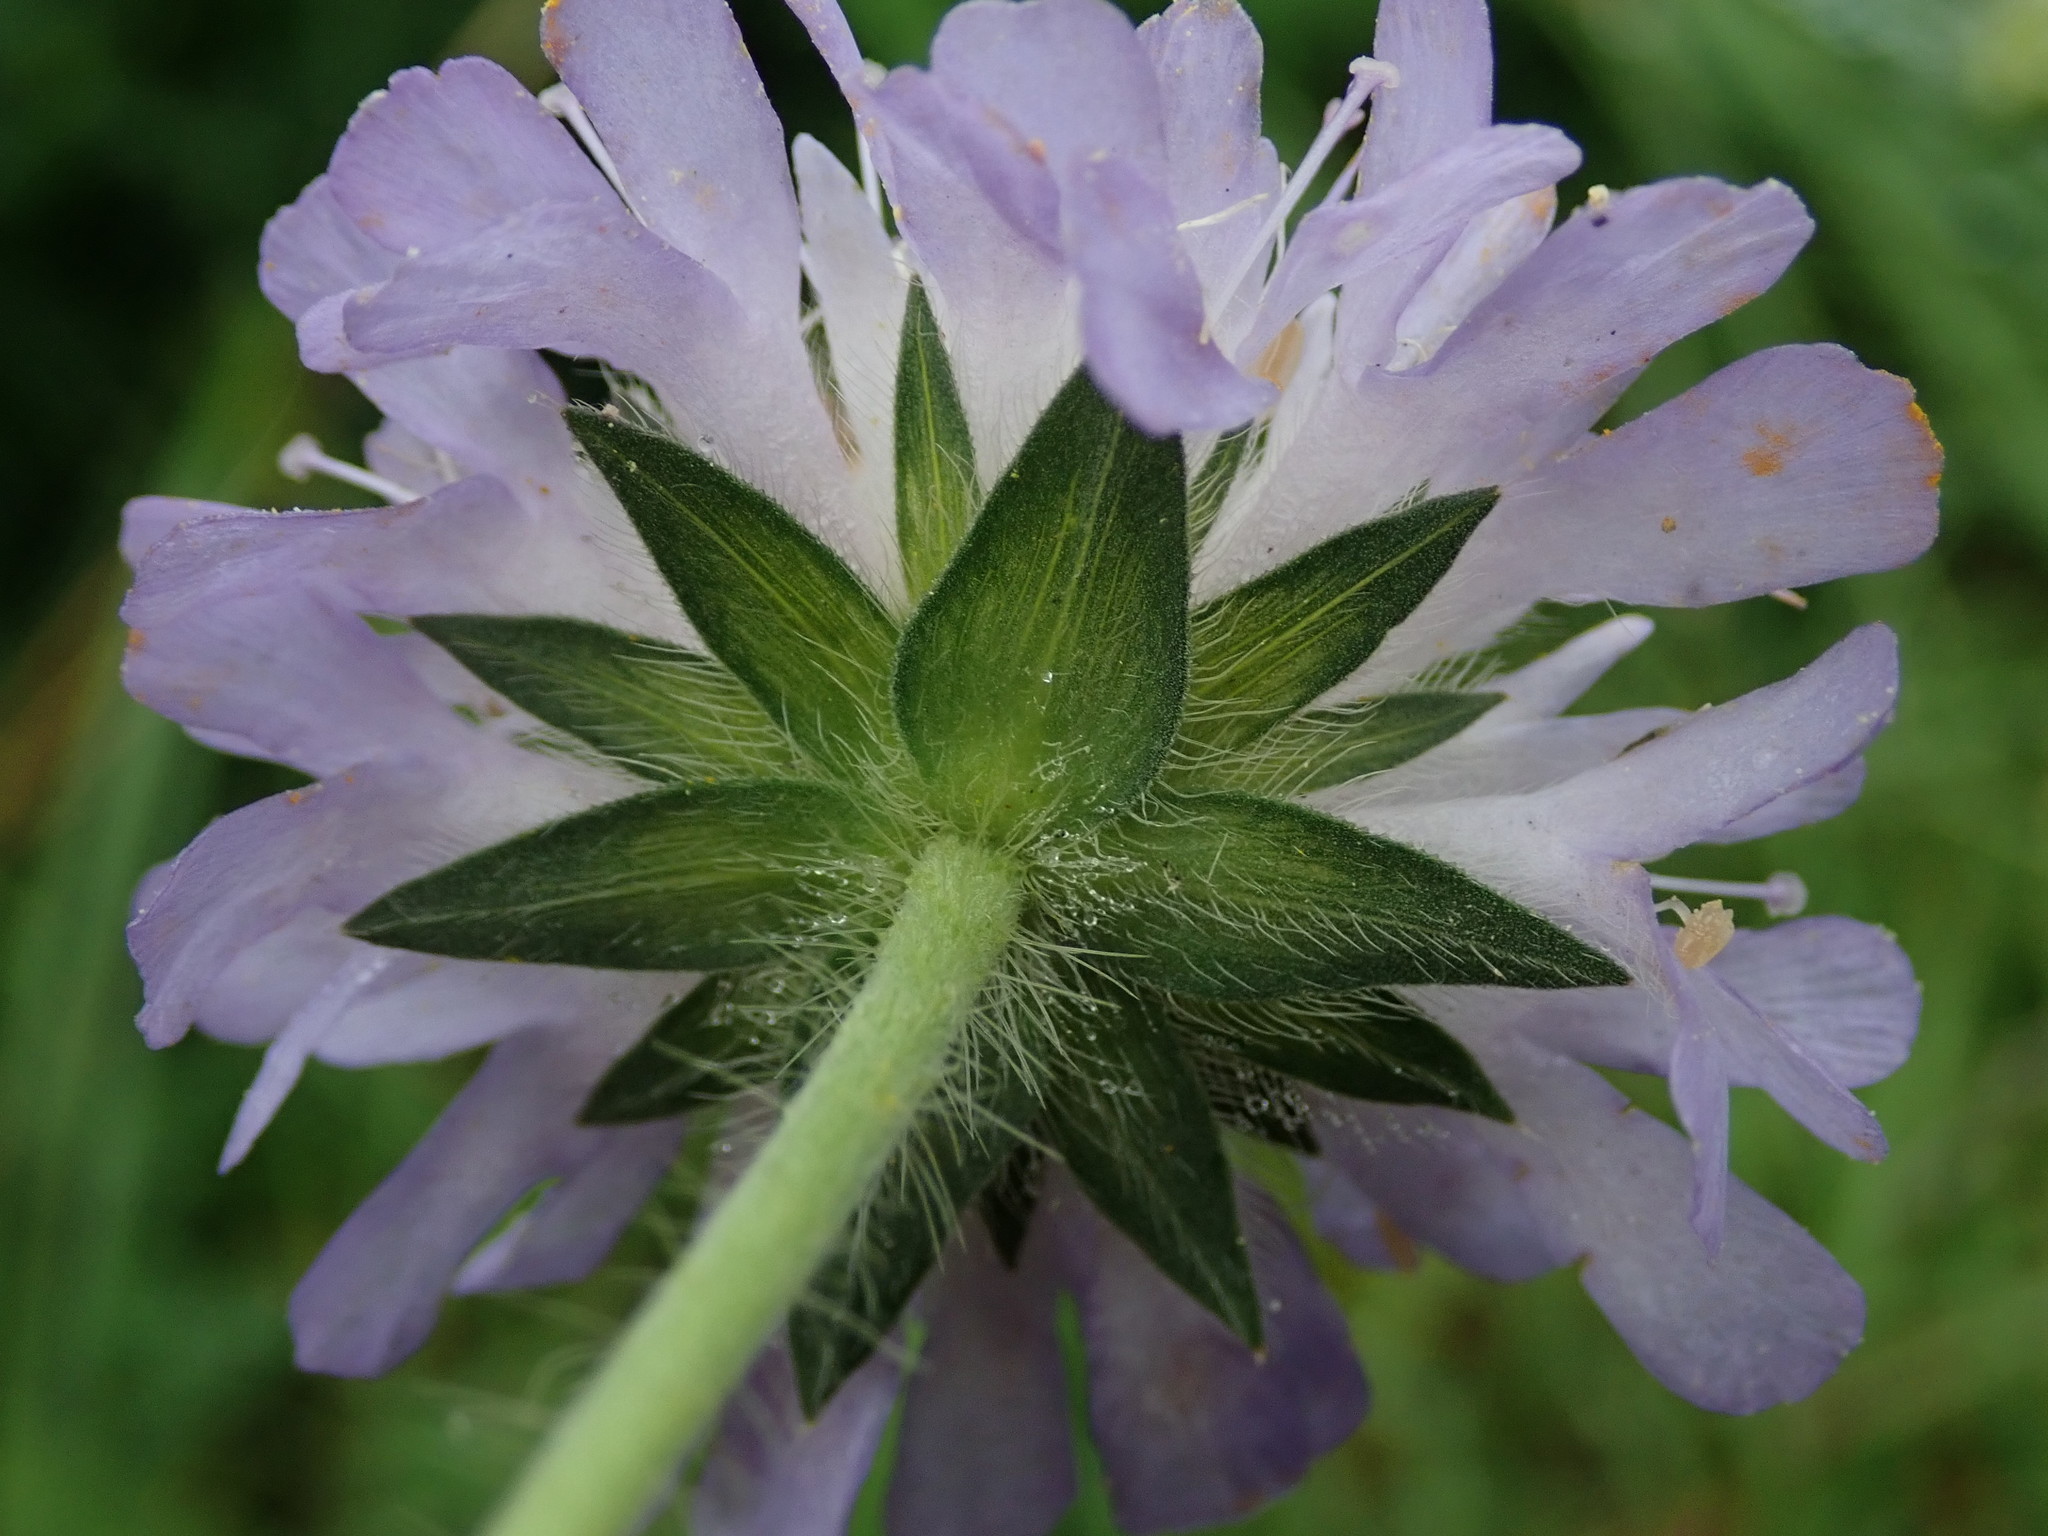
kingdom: Plantae
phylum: Tracheophyta
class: Magnoliopsida
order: Dipsacales
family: Caprifoliaceae
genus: Knautia
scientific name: Knautia arvensis
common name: Field scabiosa
